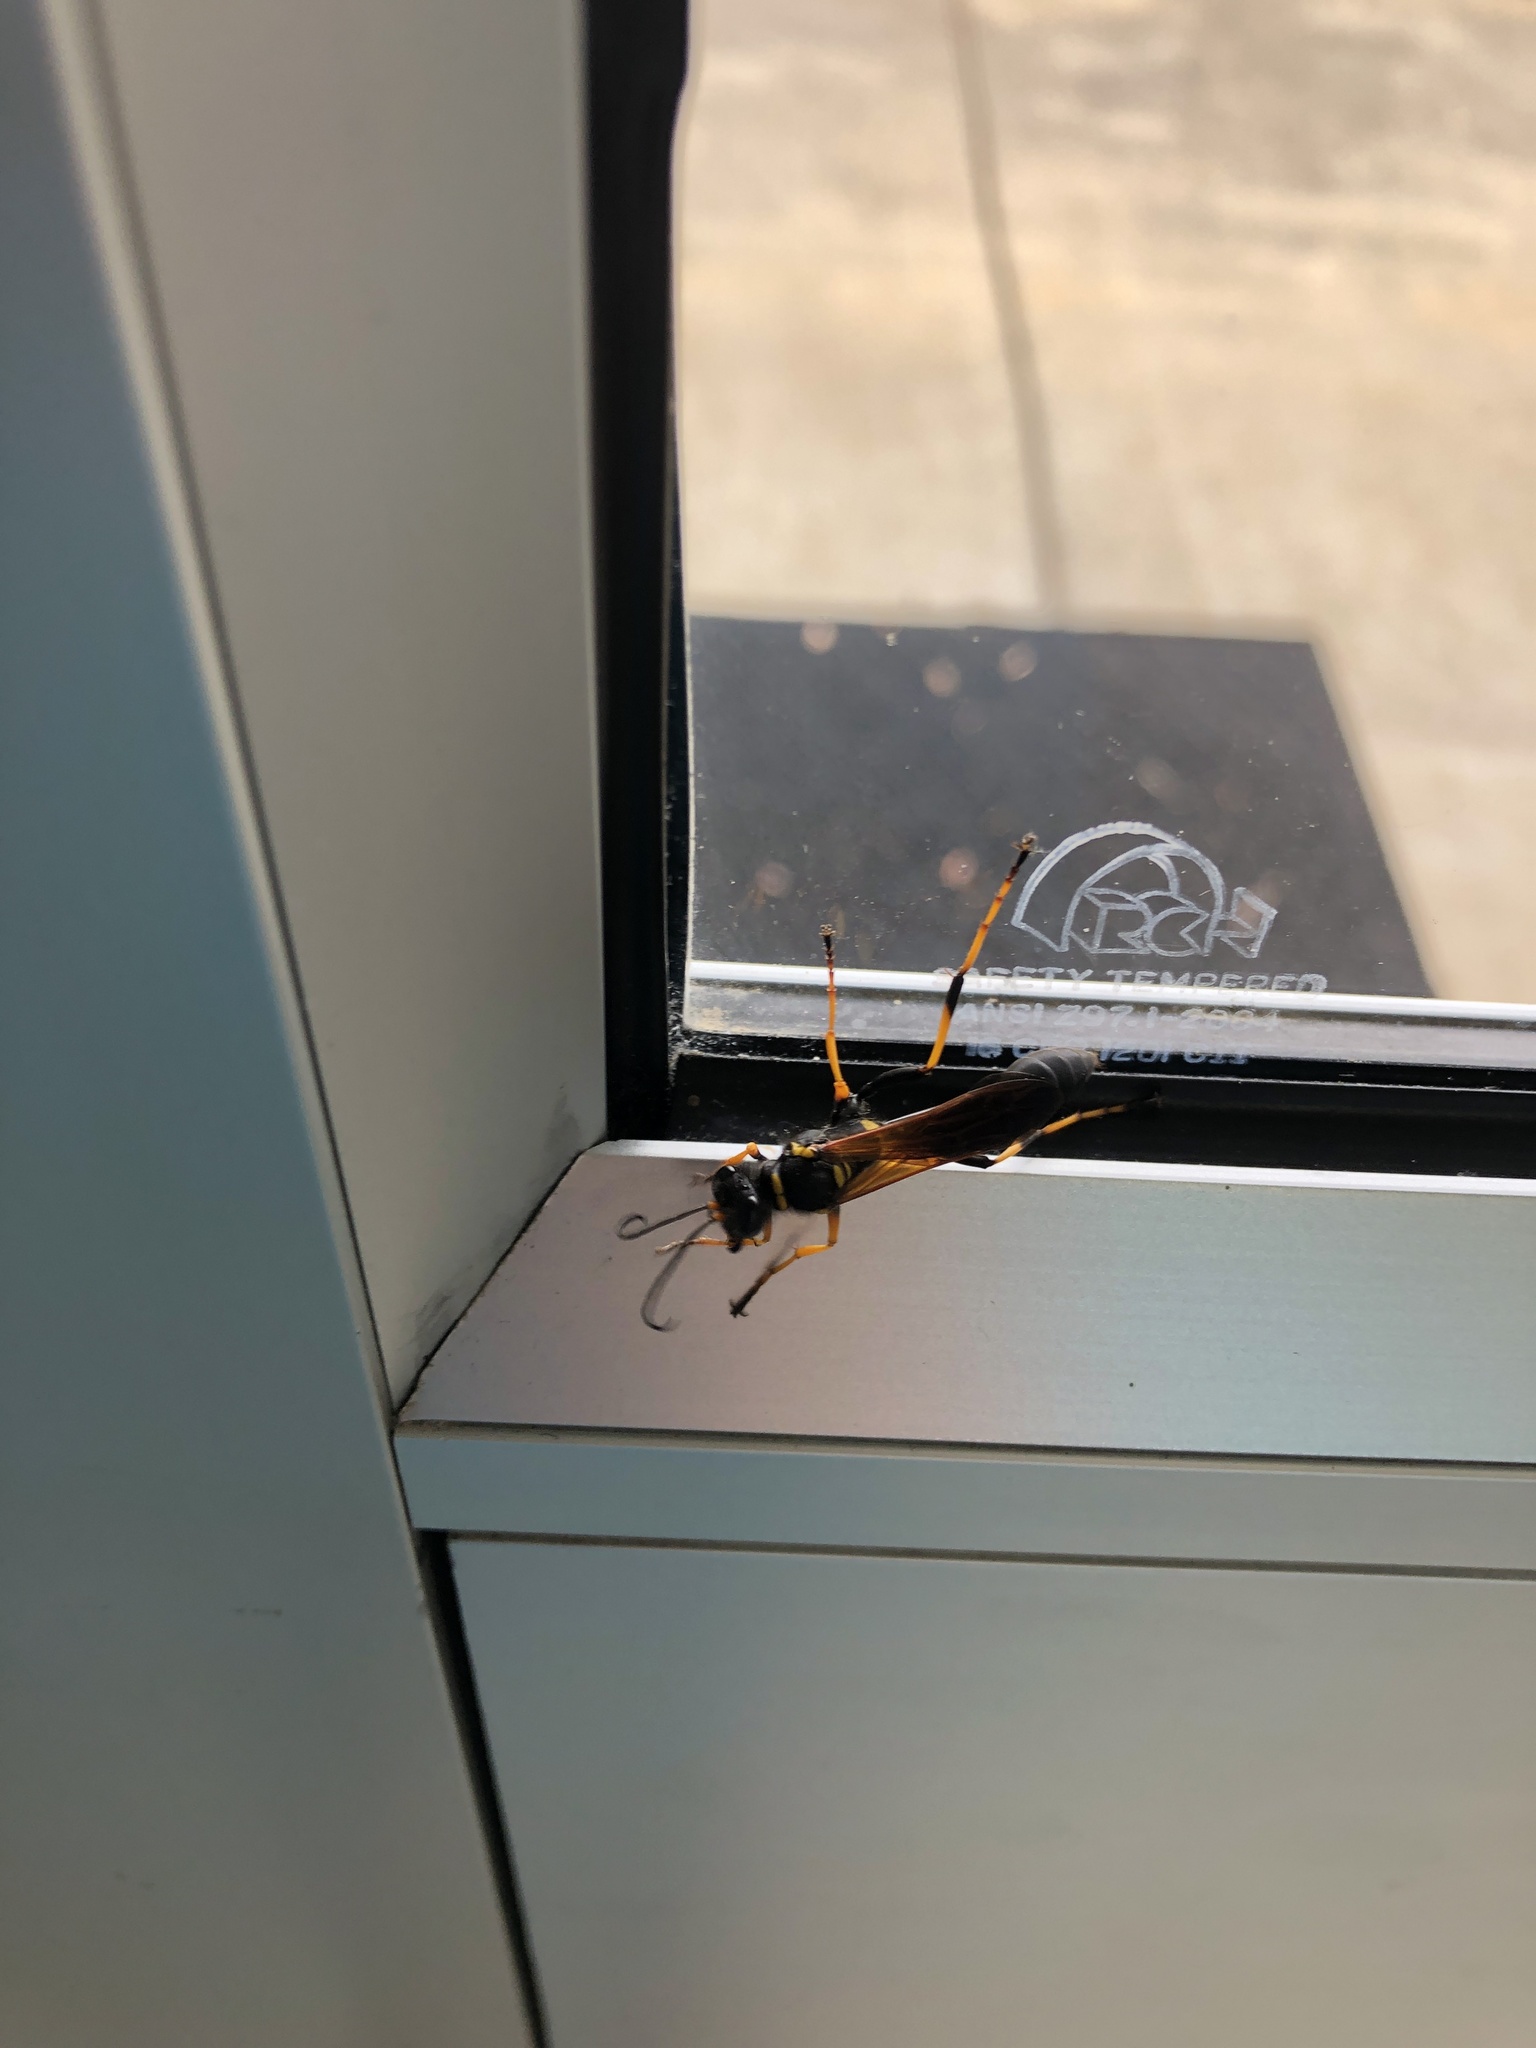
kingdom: Animalia
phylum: Arthropoda
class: Insecta
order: Hymenoptera
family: Sphecidae
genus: Sceliphron
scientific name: Sceliphron caementarium
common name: Mud dauber
